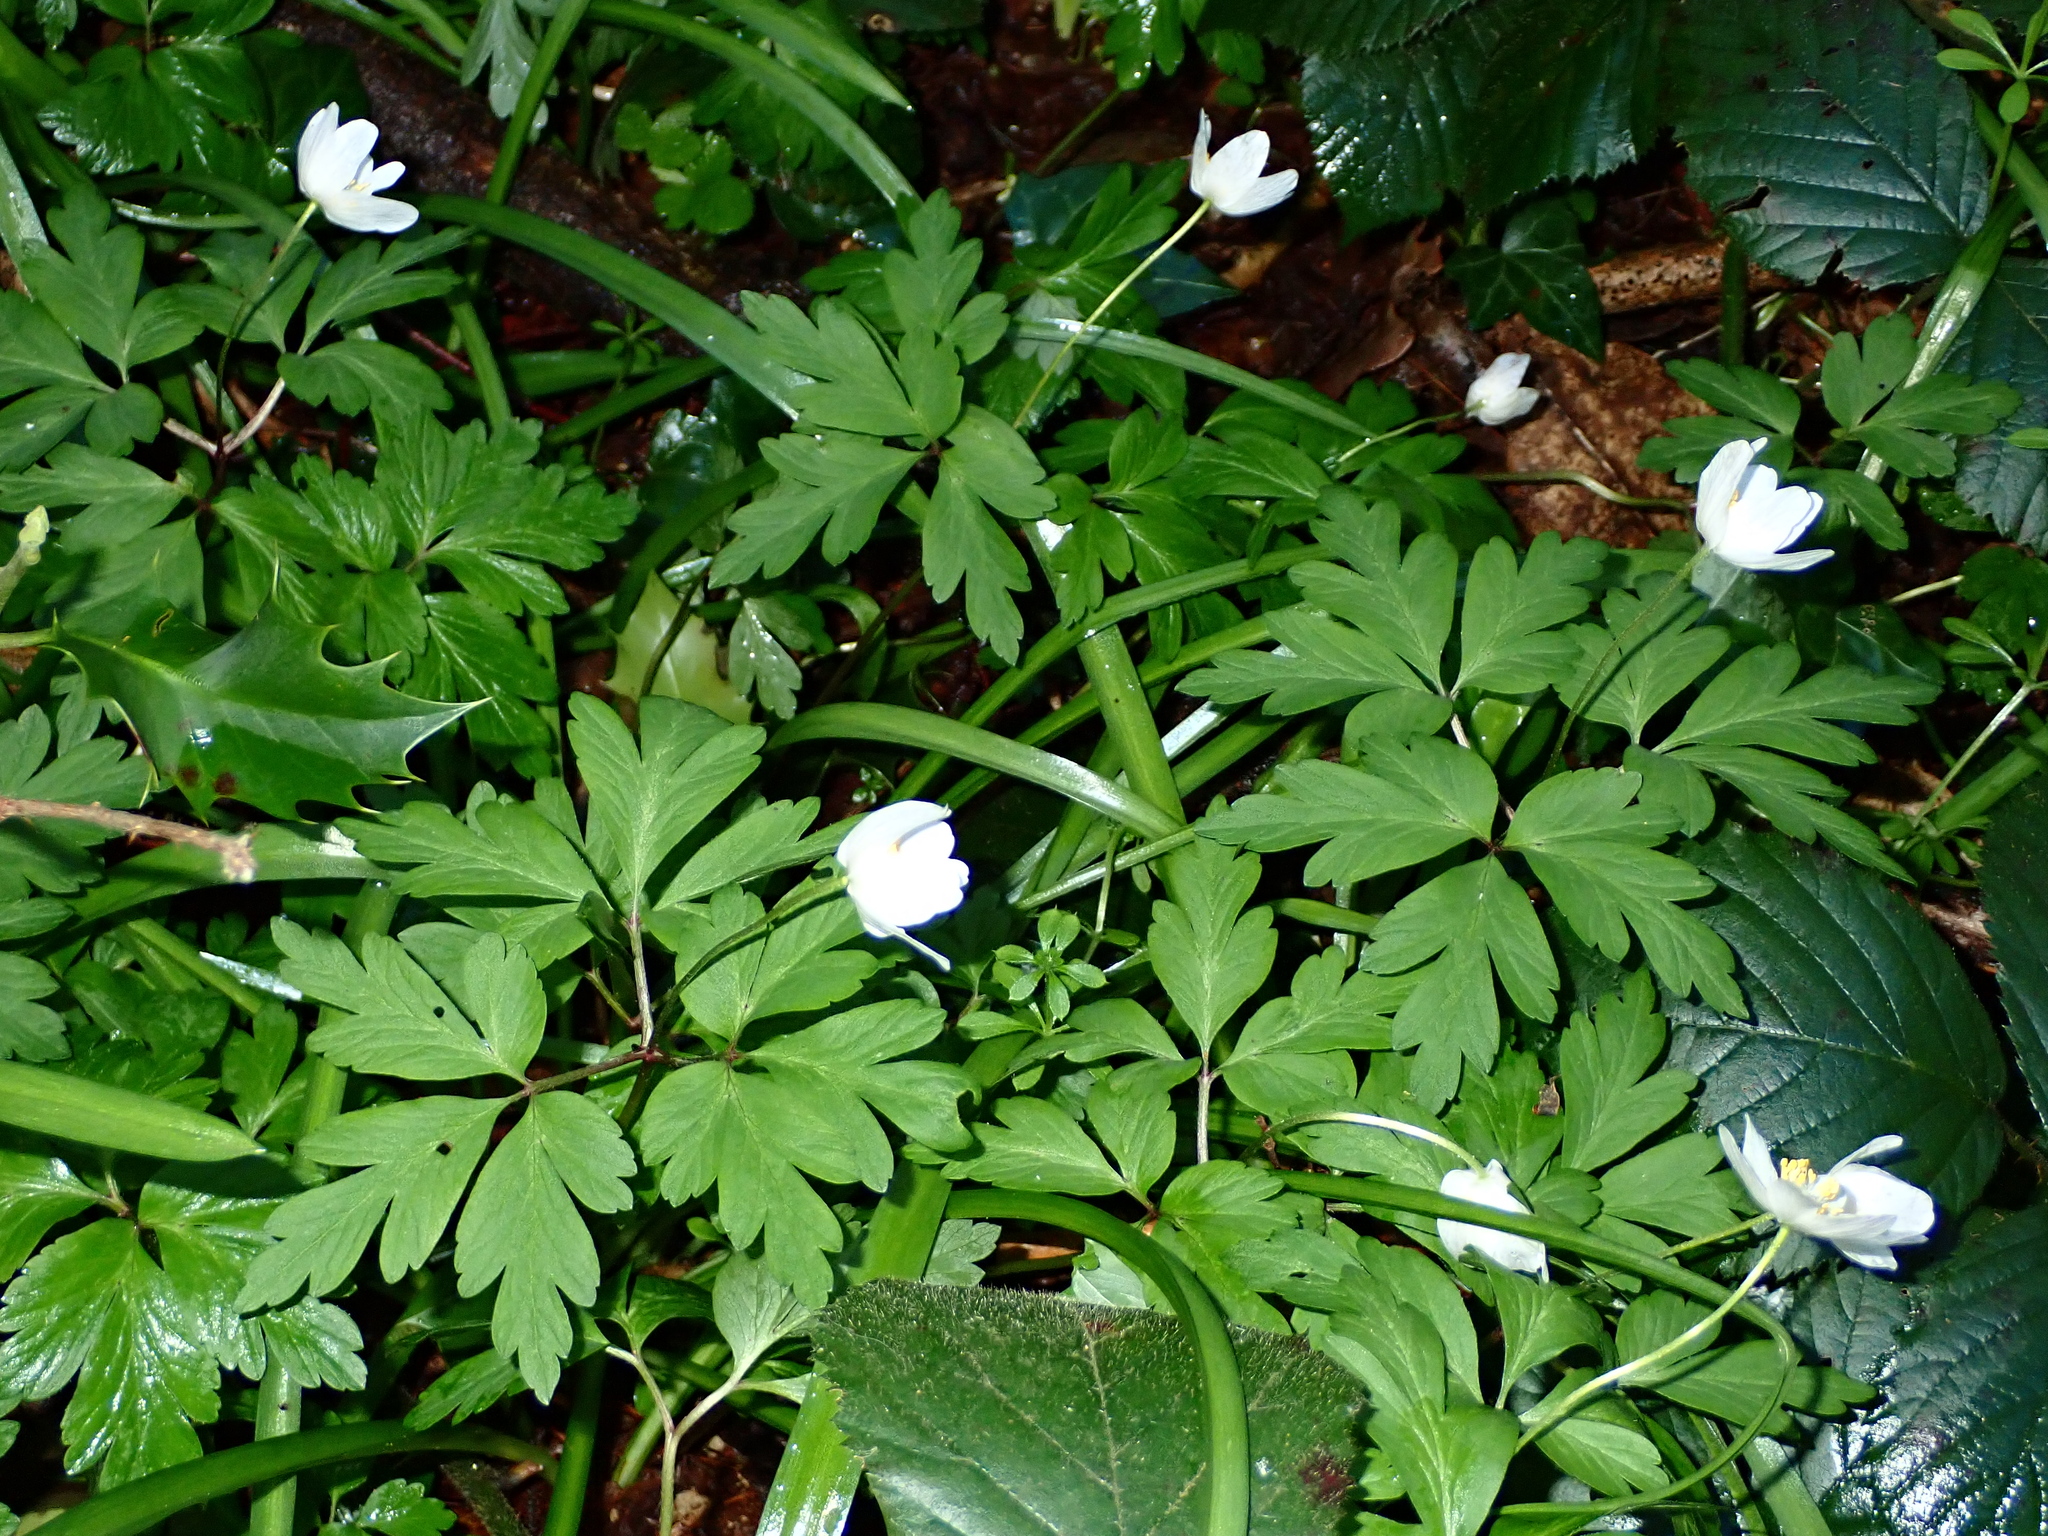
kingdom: Plantae
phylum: Tracheophyta
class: Magnoliopsida
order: Ranunculales
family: Ranunculaceae
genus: Anemone
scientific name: Anemone nemorosa
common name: Wood anemone
